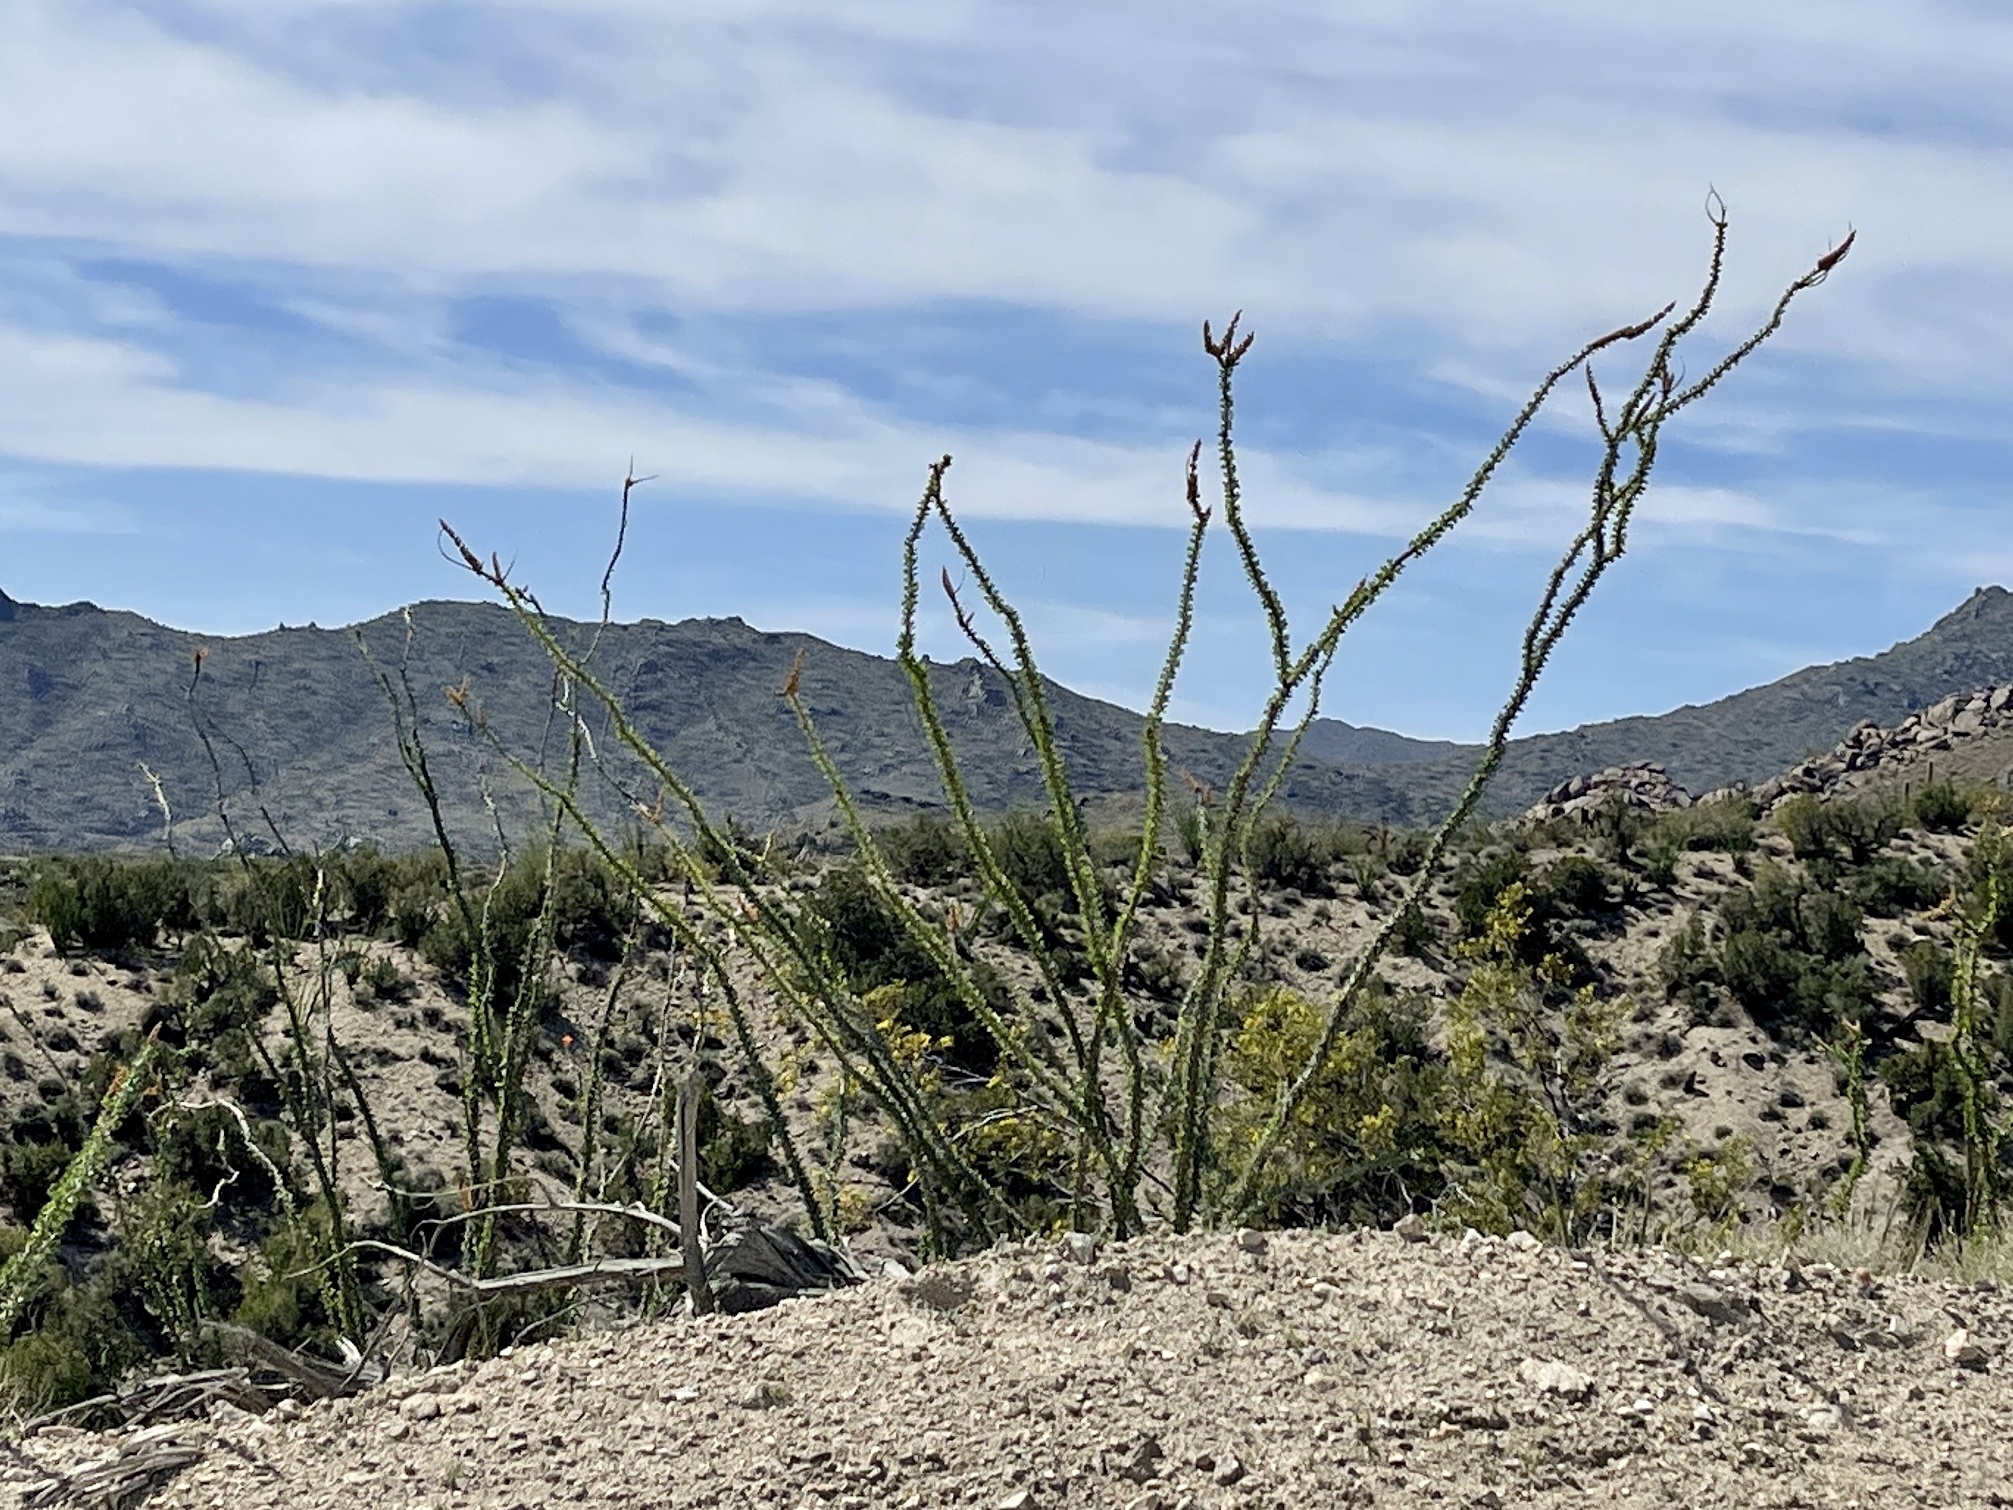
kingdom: Plantae
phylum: Tracheophyta
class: Magnoliopsida
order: Ericales
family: Fouquieriaceae
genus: Fouquieria
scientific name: Fouquieria splendens
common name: Vine-cactus
